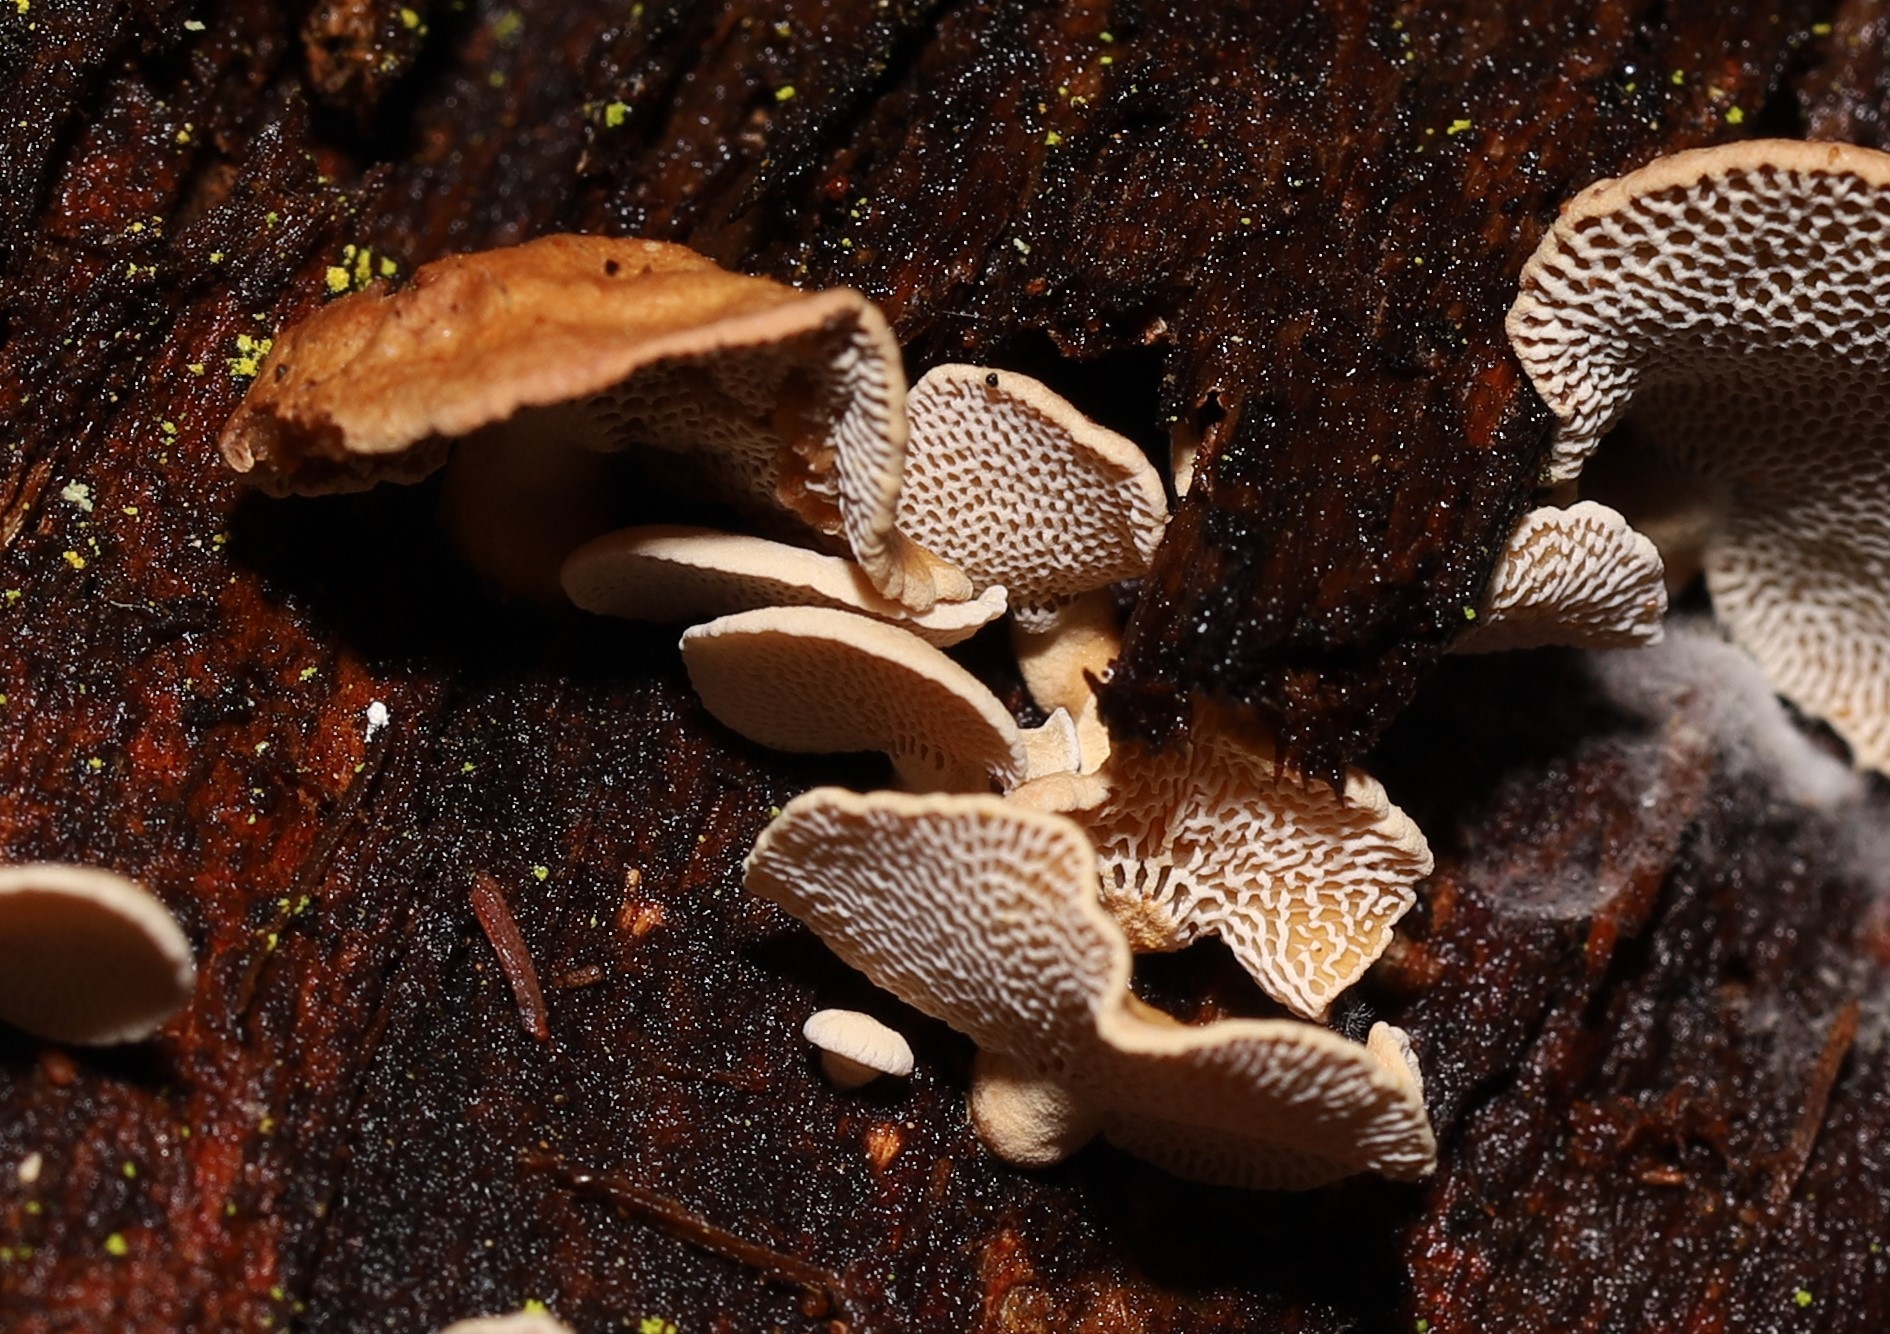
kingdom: Fungi
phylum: Basidiomycota
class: Agaricomycetes
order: Agaricales
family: Mycenaceae
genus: Panellus
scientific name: Panellus luxfilamentus
